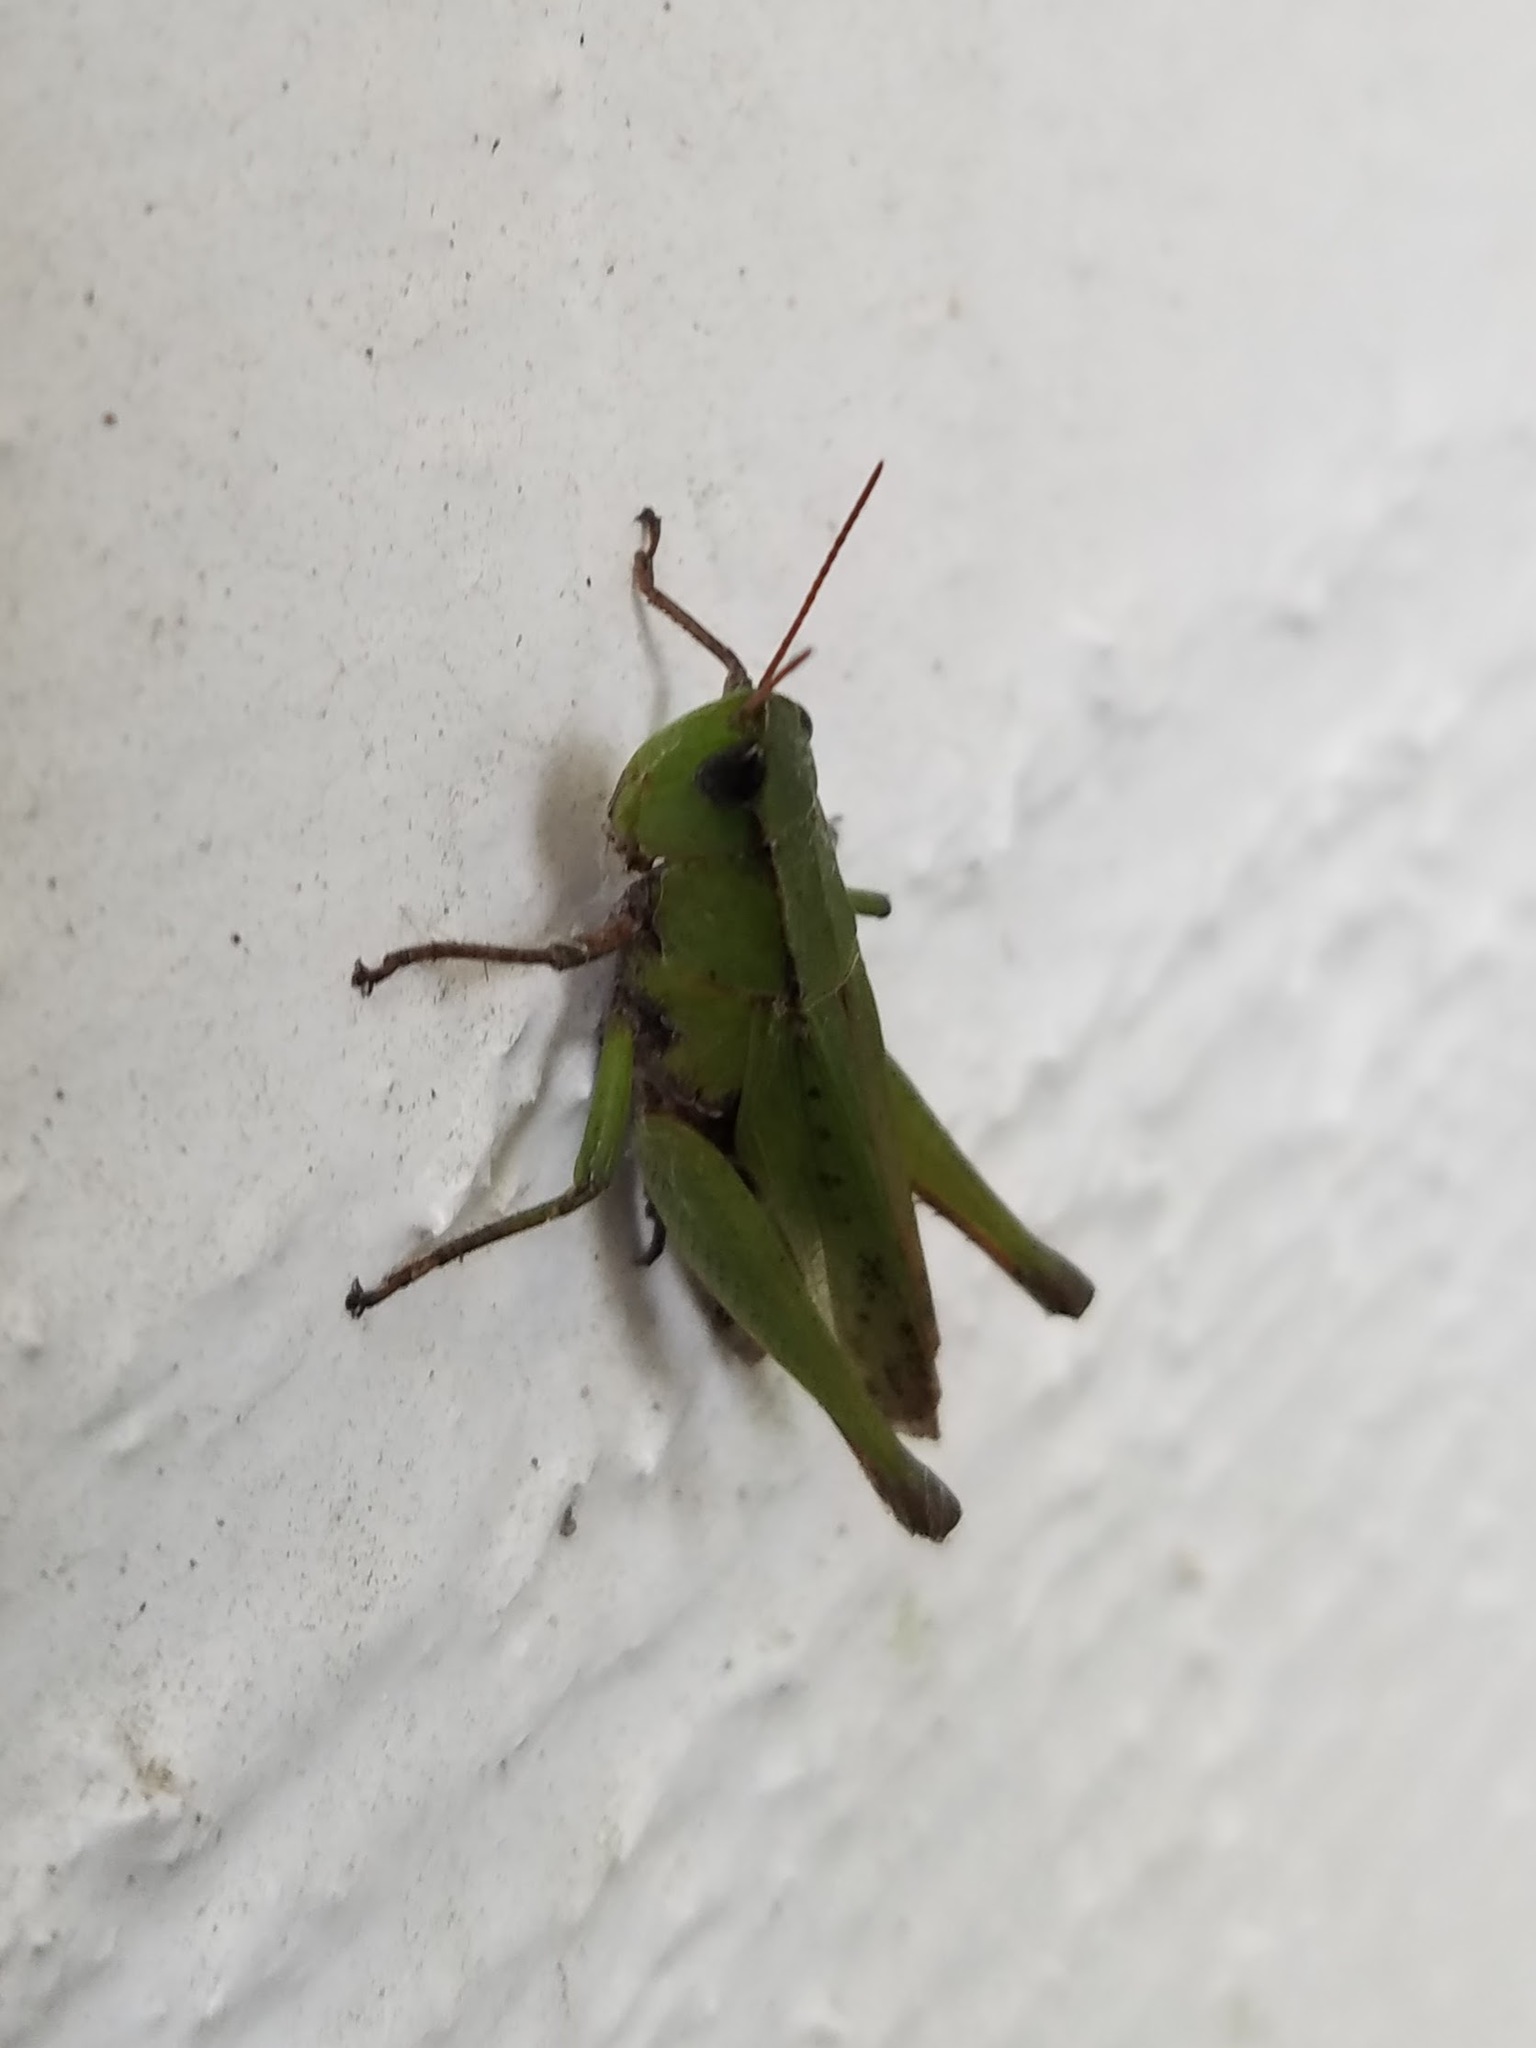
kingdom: Animalia
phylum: Arthropoda
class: Insecta
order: Orthoptera
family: Acrididae
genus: Dichromorpha
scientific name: Dichromorpha viridis
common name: Short-winged green grasshopper
